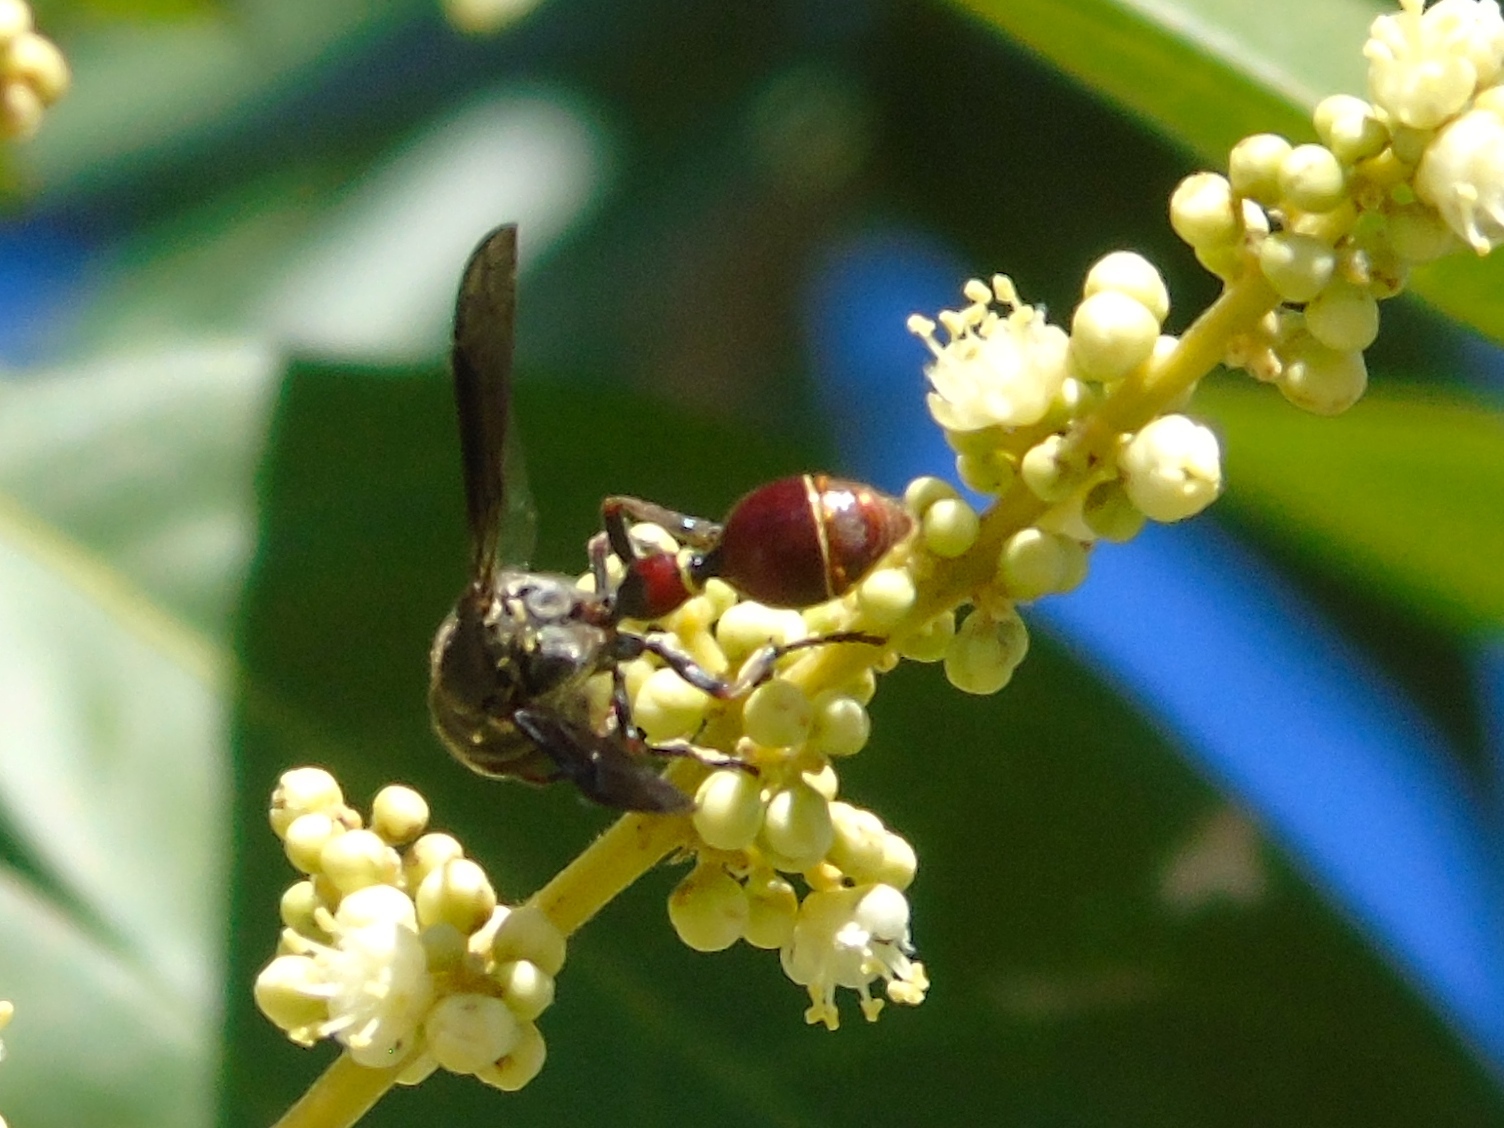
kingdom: Animalia
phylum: Arthropoda
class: Insecta
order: Hymenoptera
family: Eumenidae
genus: Zethus
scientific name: Zethus analis
